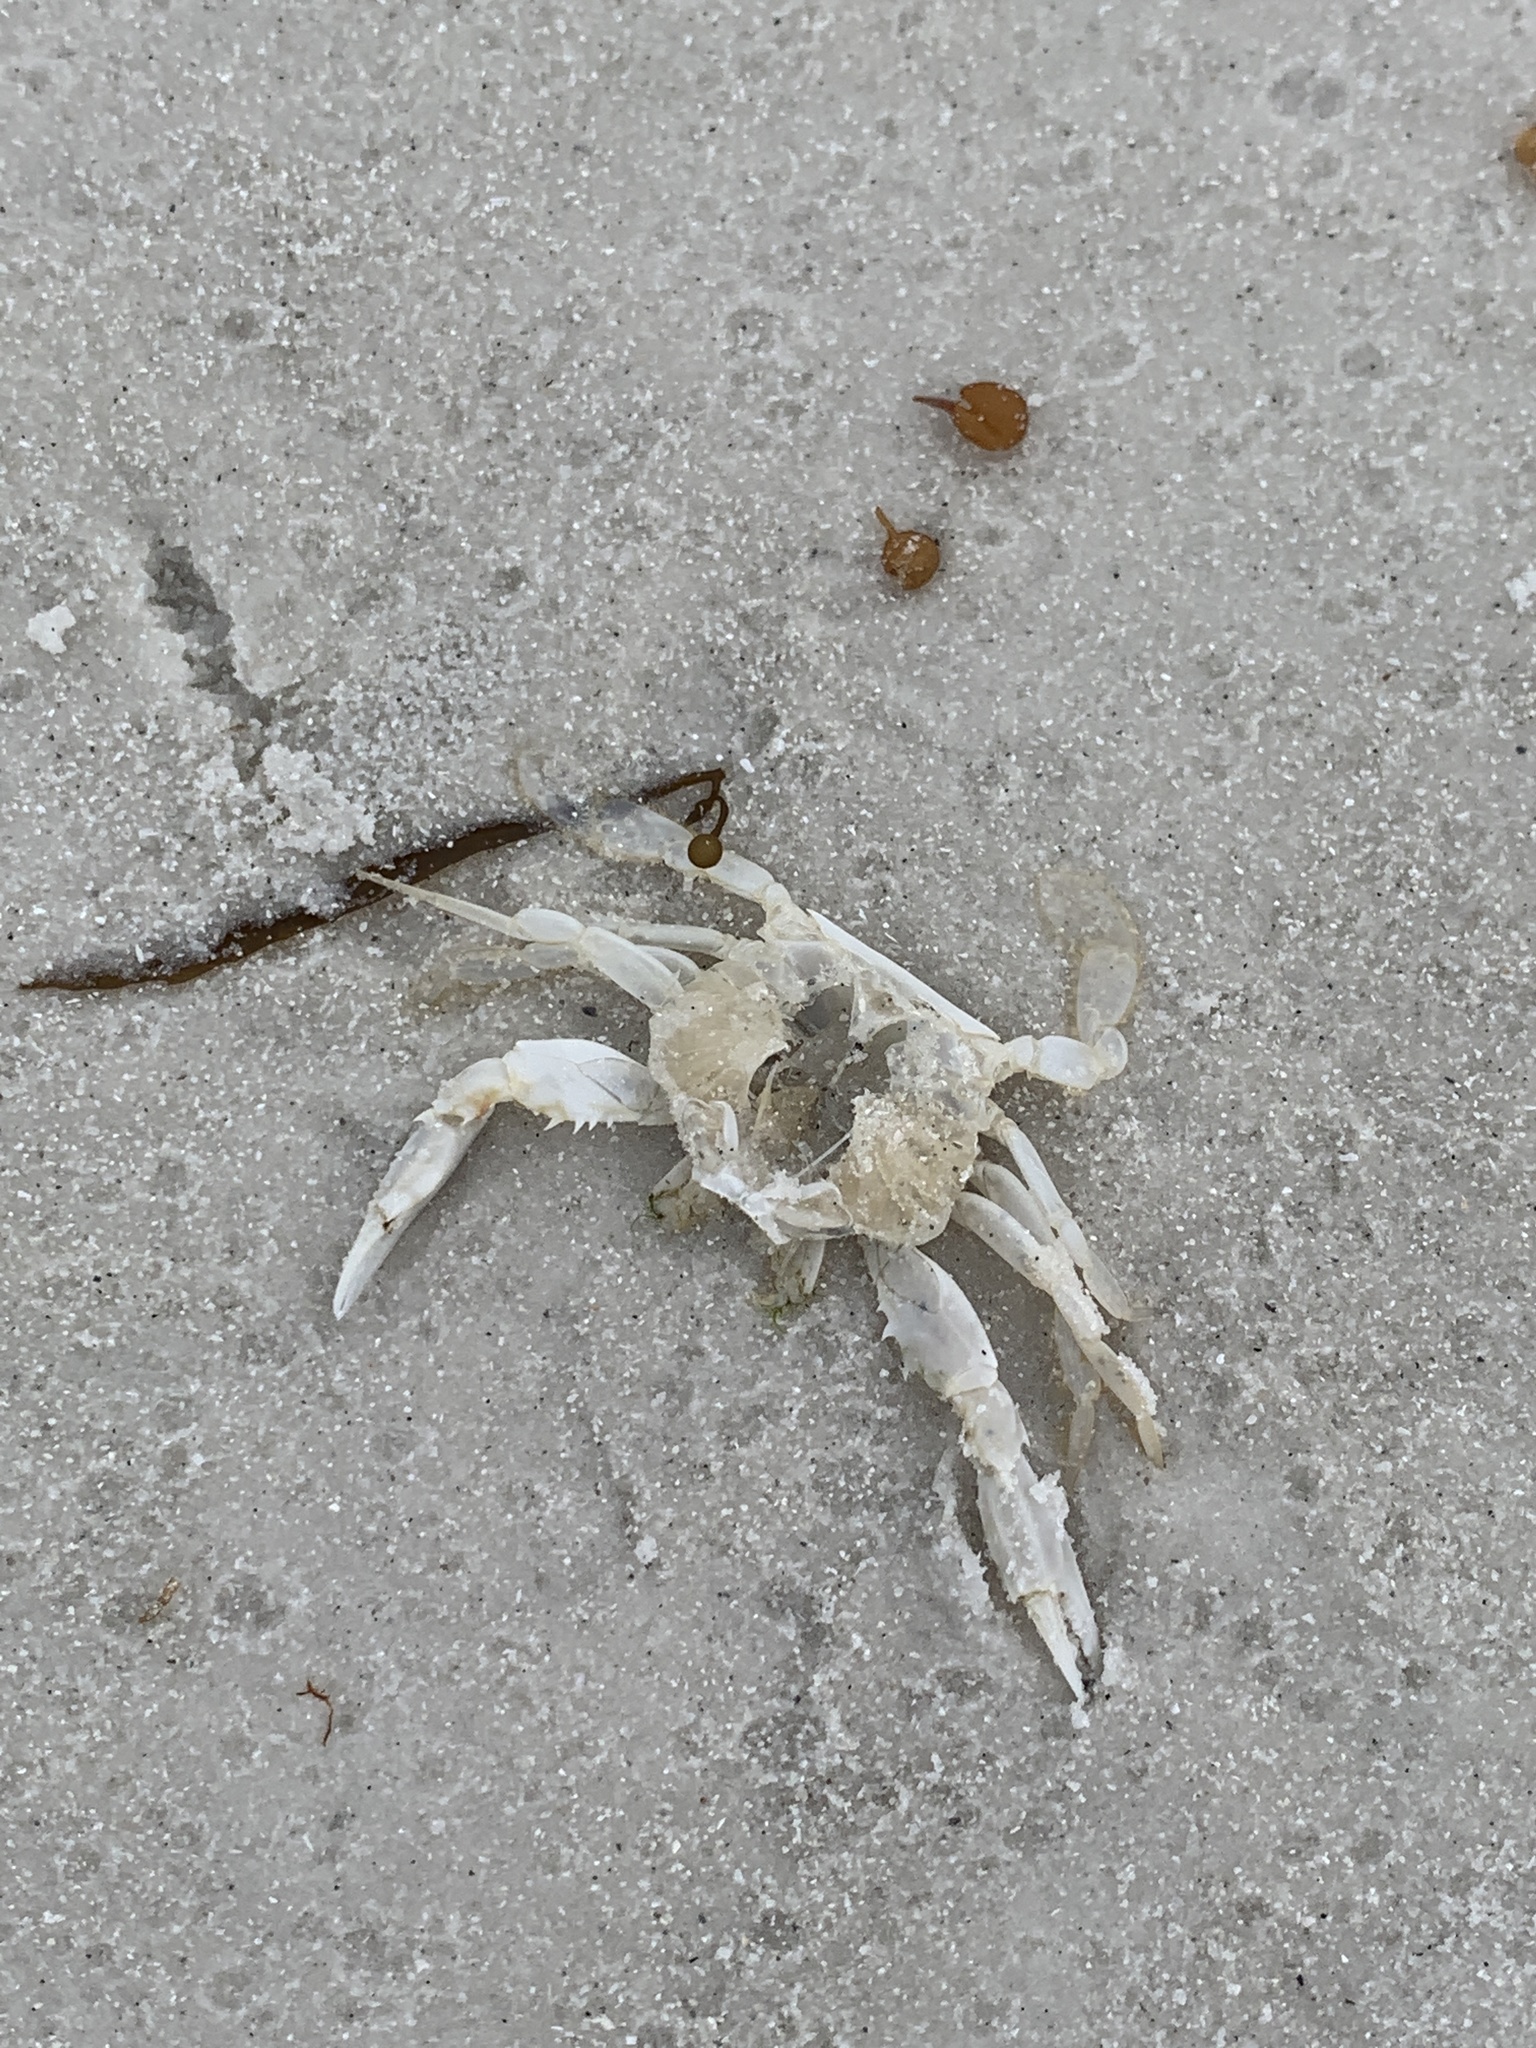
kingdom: Animalia
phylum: Arthropoda
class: Malacostraca
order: Decapoda
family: Portunidae
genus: Arenaeus
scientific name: Arenaeus cribrarius
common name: Speckled crab
